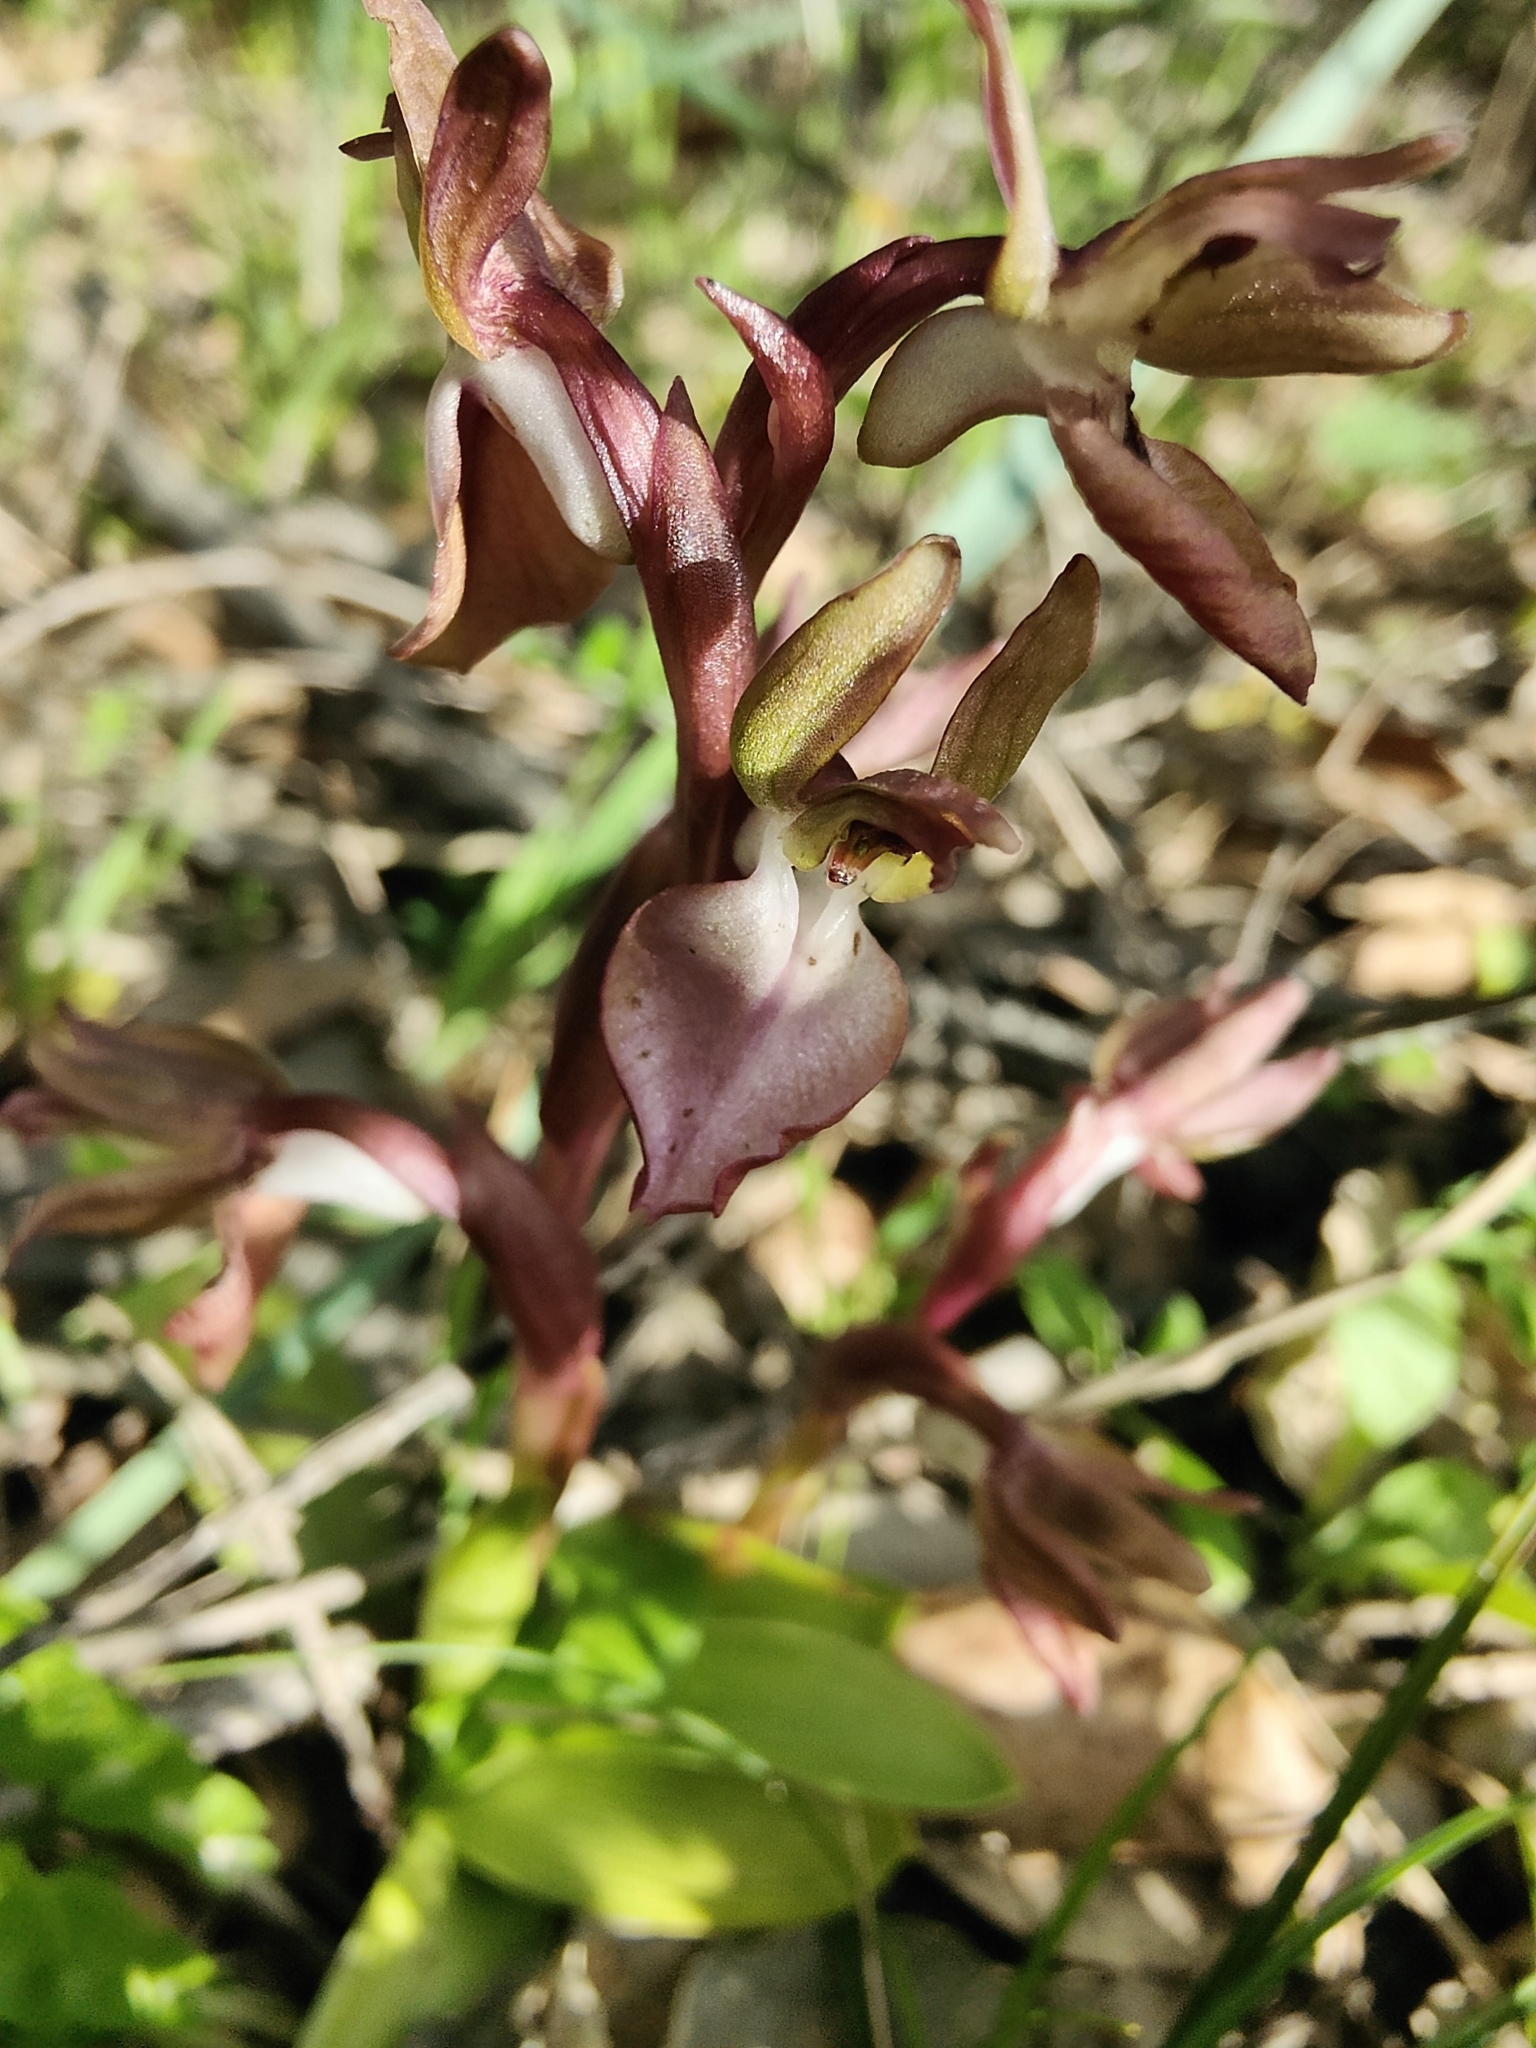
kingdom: Plantae
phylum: Tracheophyta
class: Liliopsida
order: Asparagales
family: Orchidaceae
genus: Anacamptis
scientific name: Anacamptis collina
